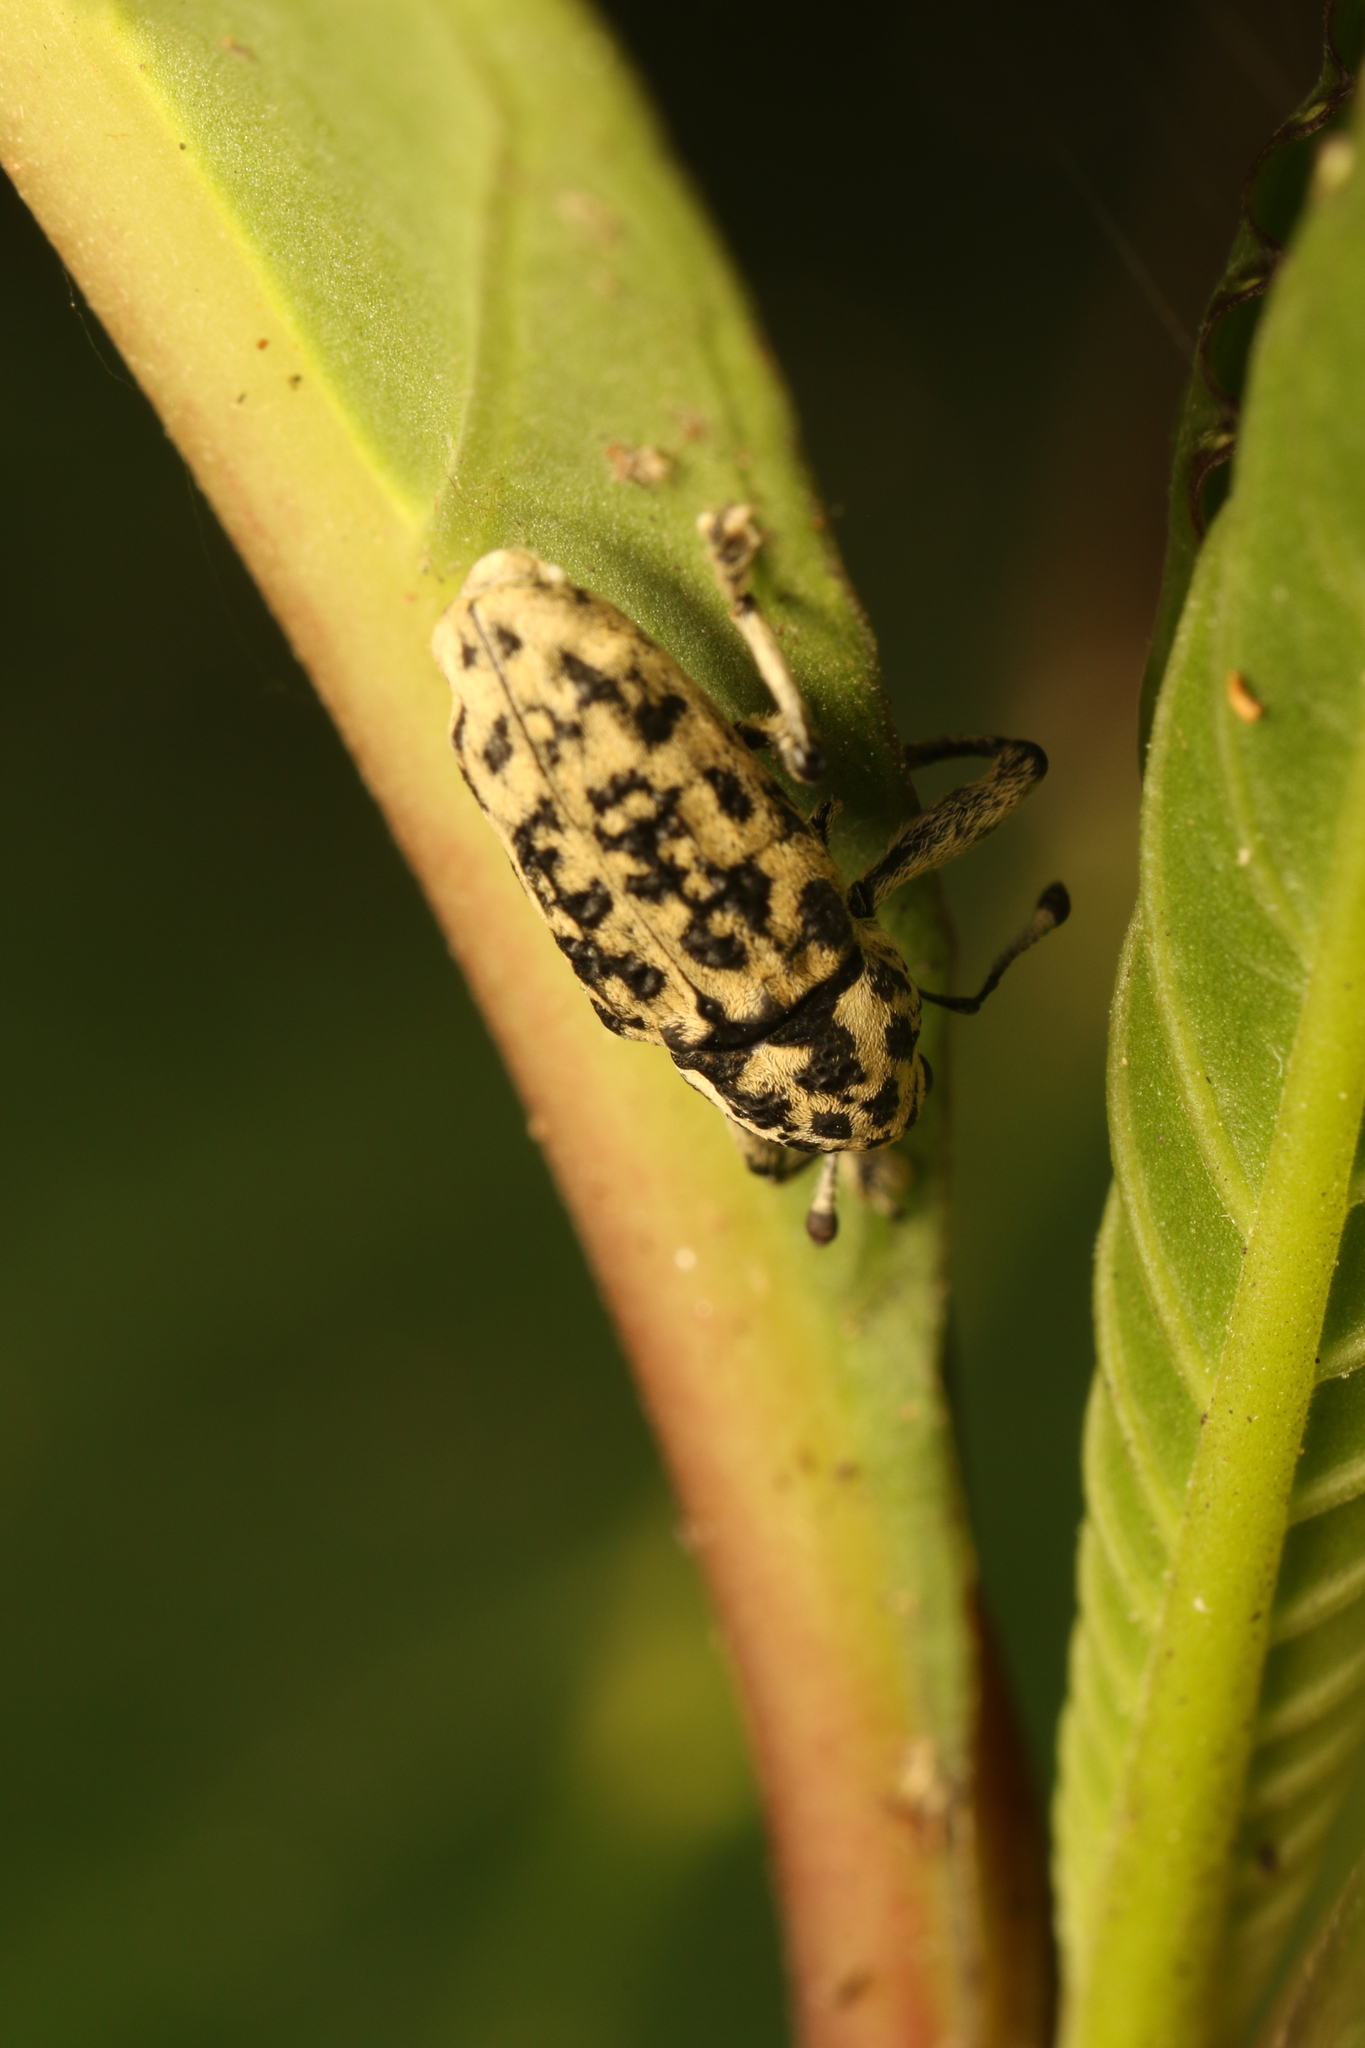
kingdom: Animalia
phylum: Arthropoda
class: Insecta
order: Coleoptera
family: Curculionidae
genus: Amerhinus
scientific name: Amerhinus olivieri
